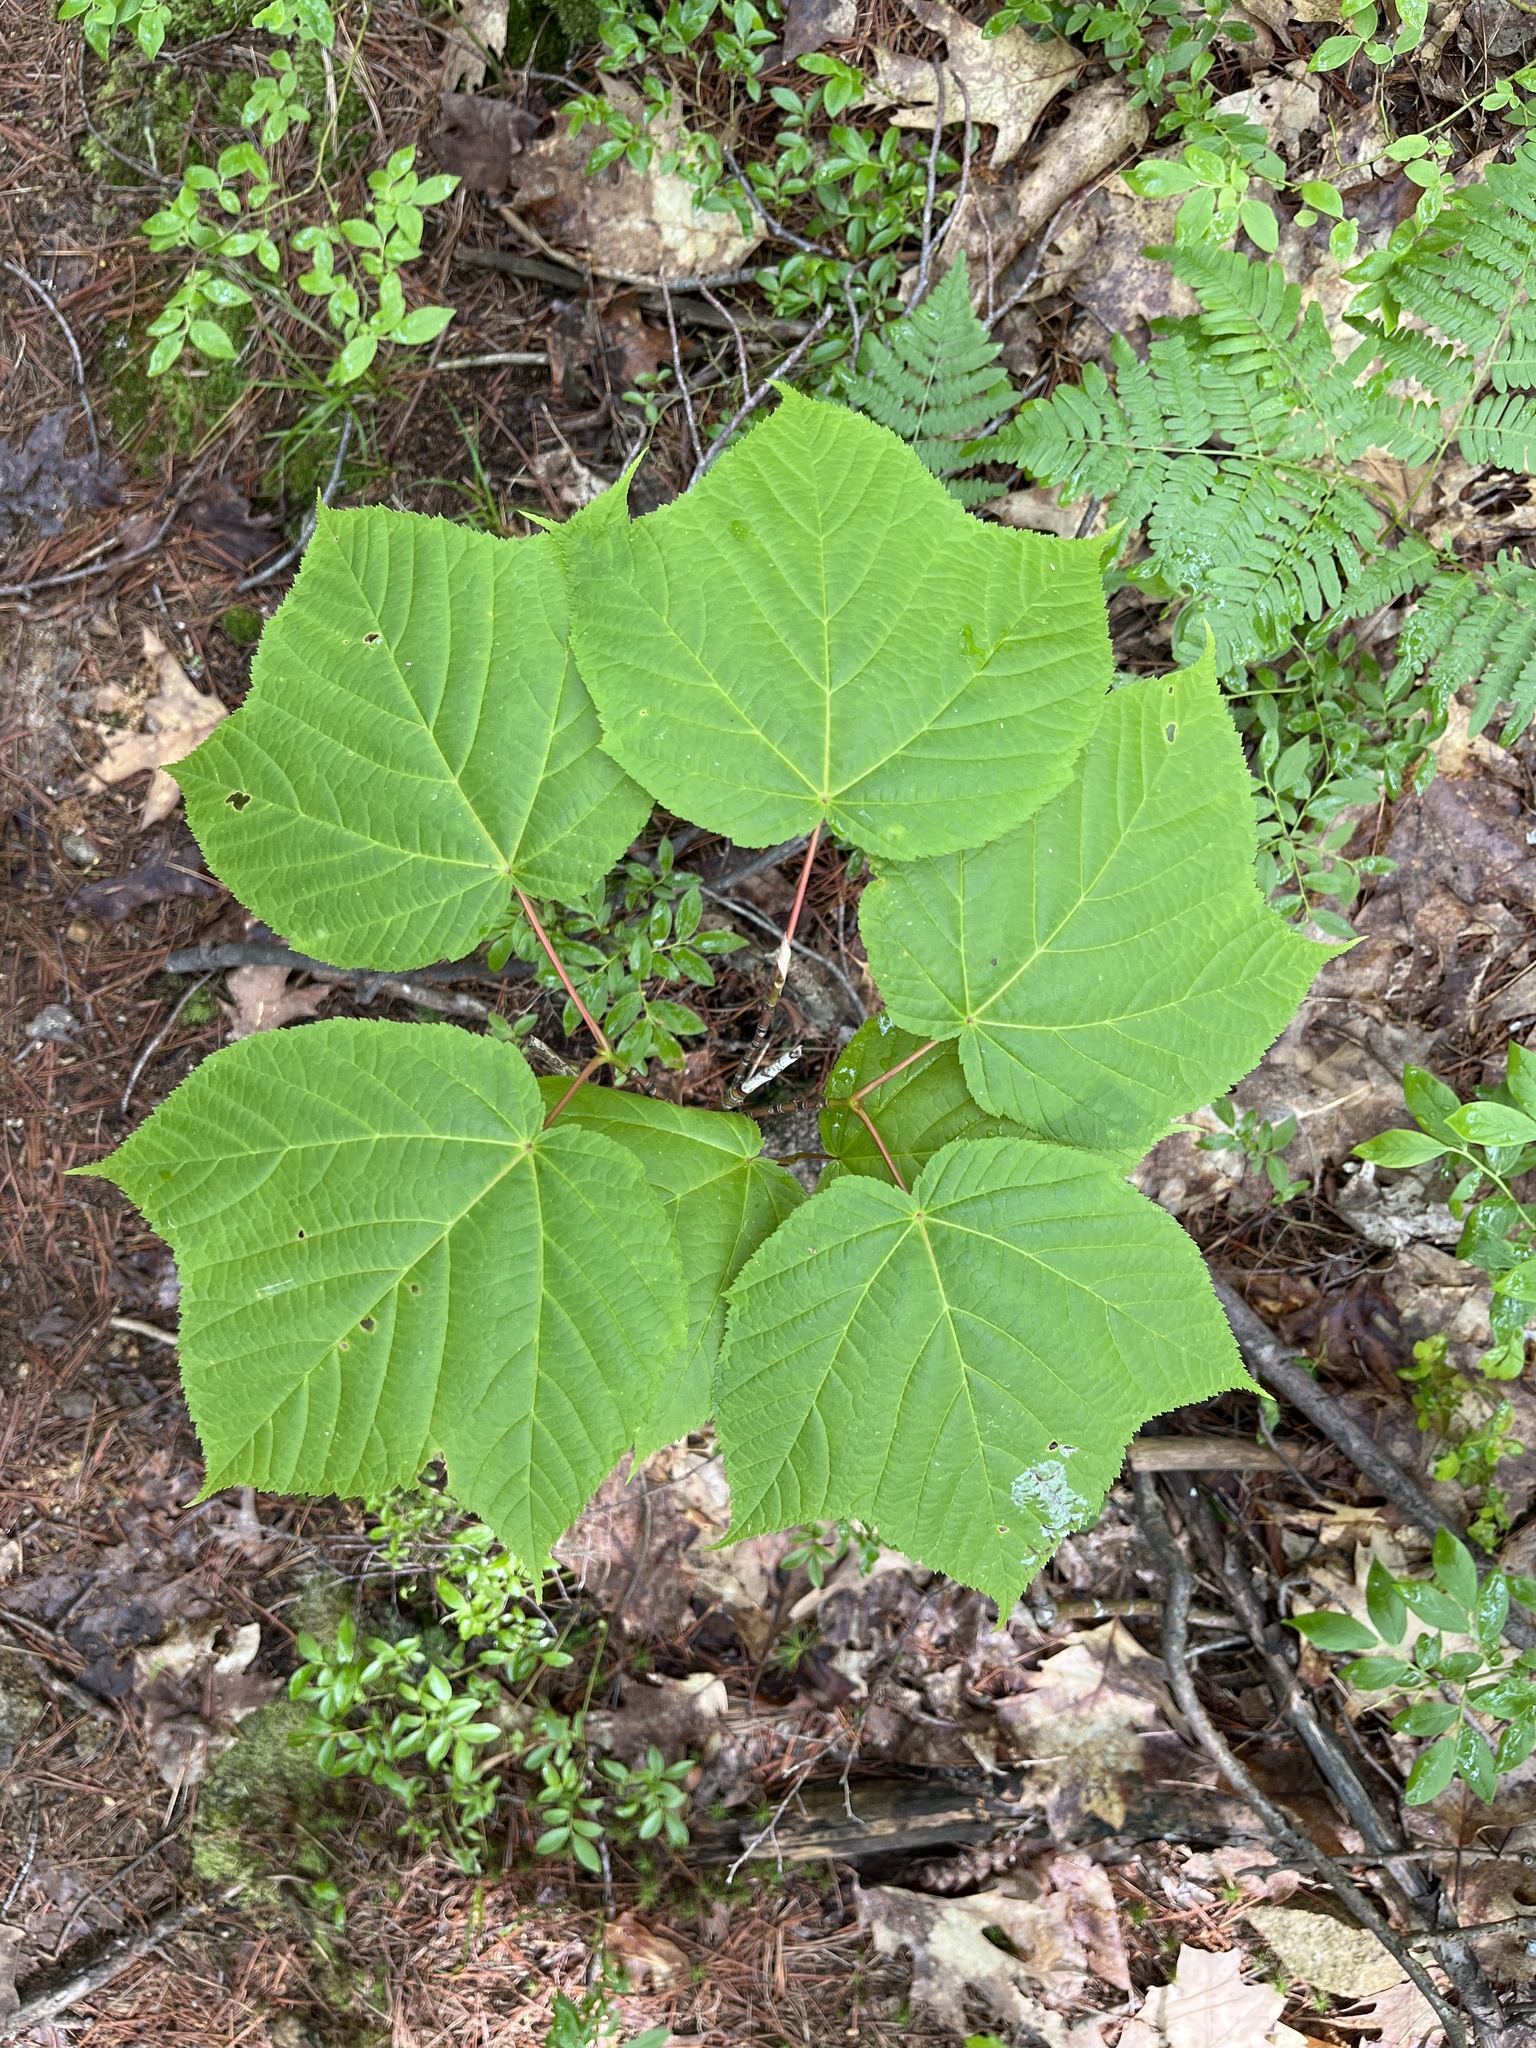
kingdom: Plantae
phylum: Tracheophyta
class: Magnoliopsida
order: Sapindales
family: Sapindaceae
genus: Acer
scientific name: Acer pensylvanicum
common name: Moosewood
